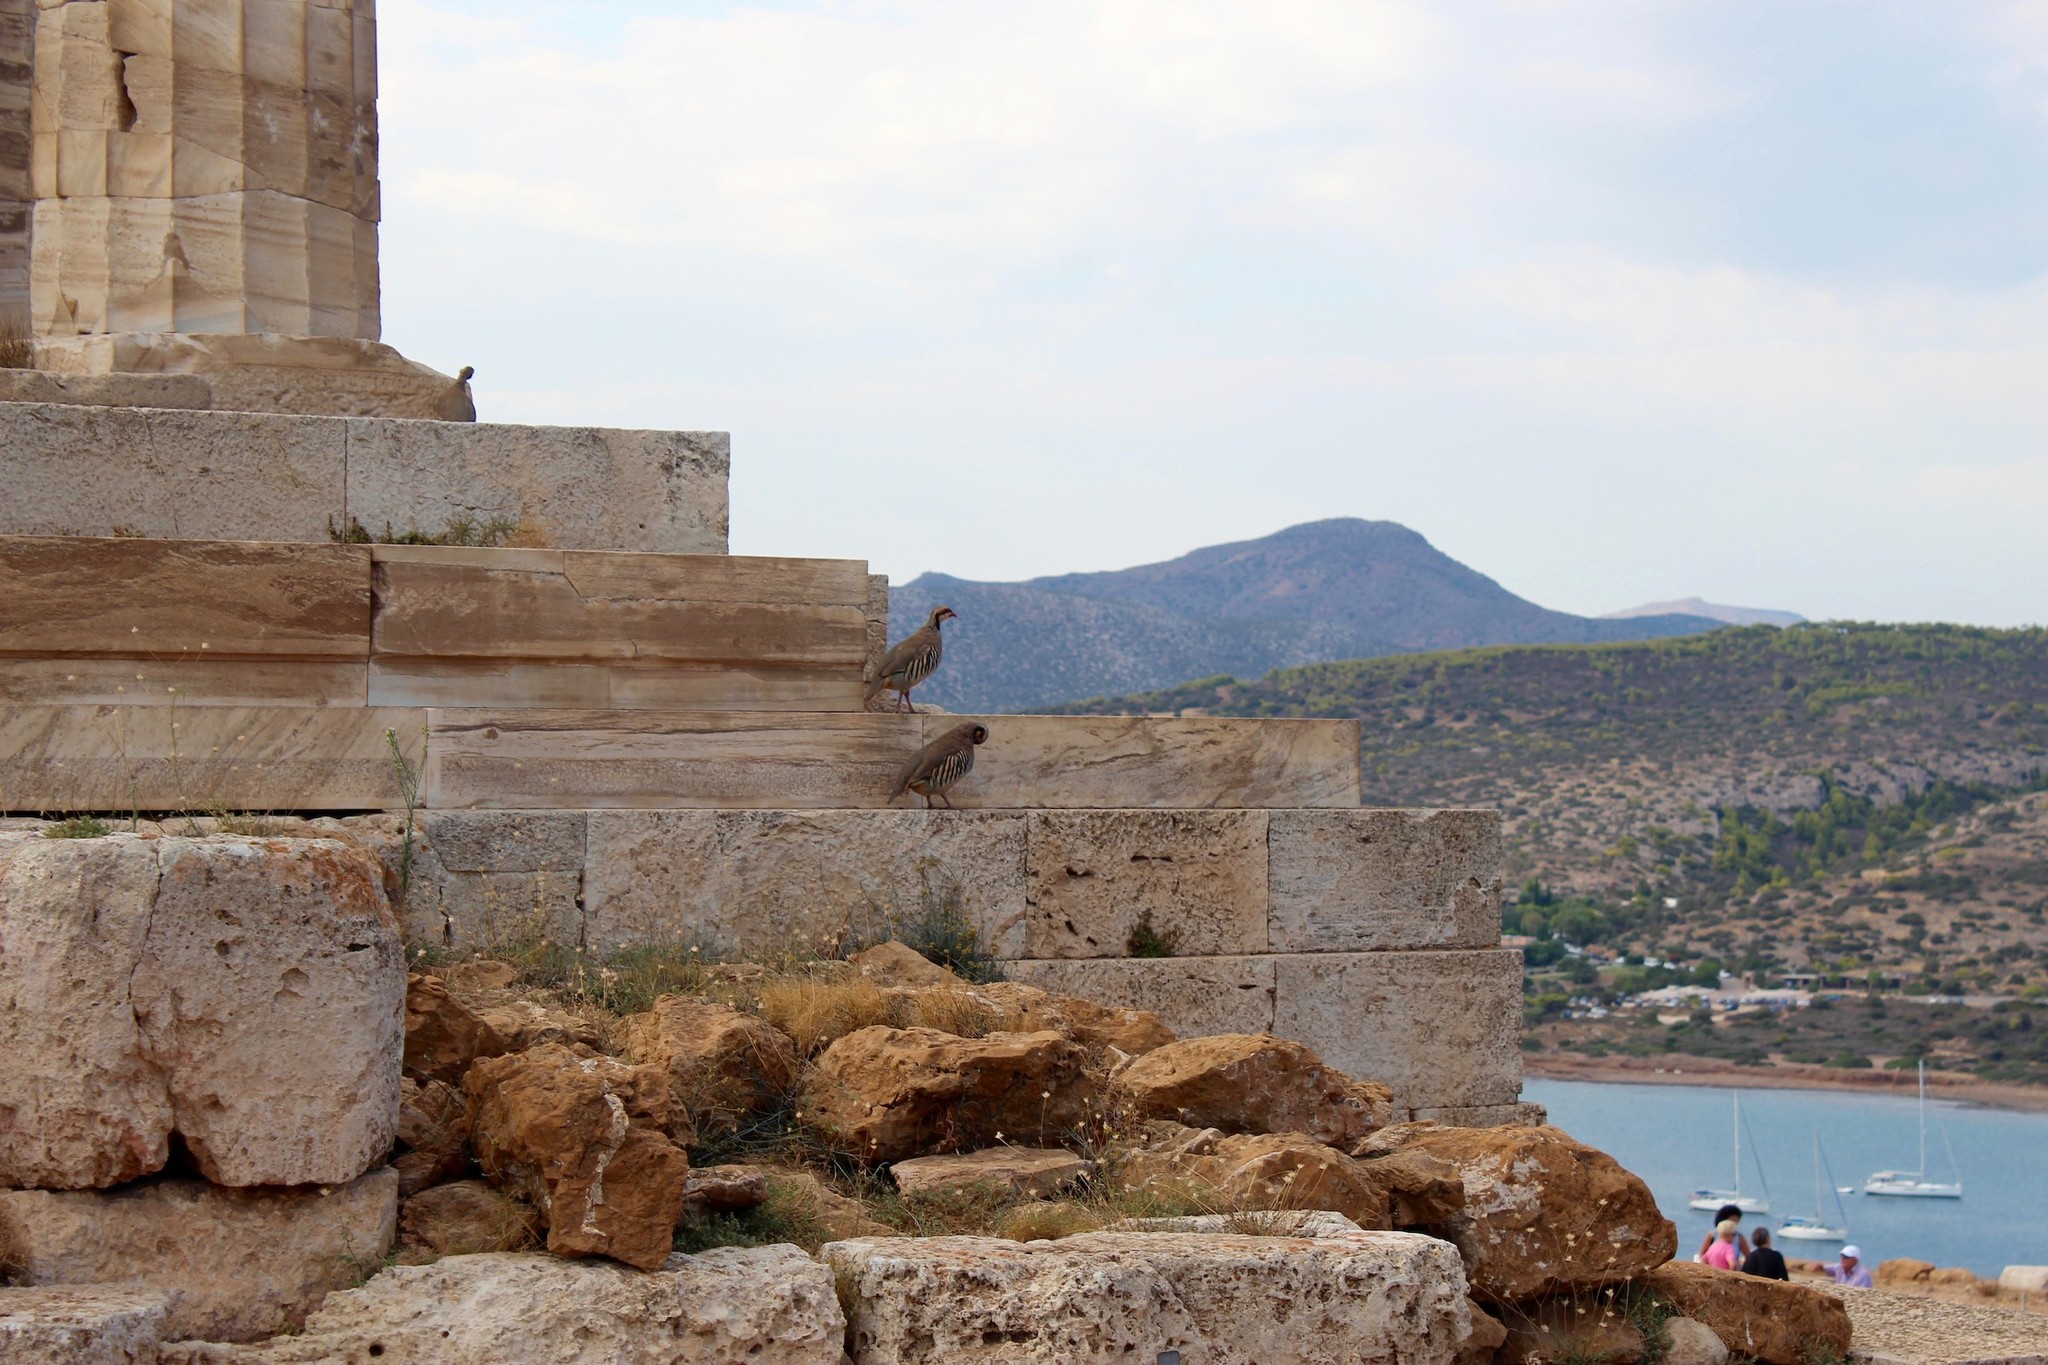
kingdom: Animalia
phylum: Chordata
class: Aves
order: Galliformes
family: Phasianidae
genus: Alectoris
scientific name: Alectoris chukar
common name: Chukar
